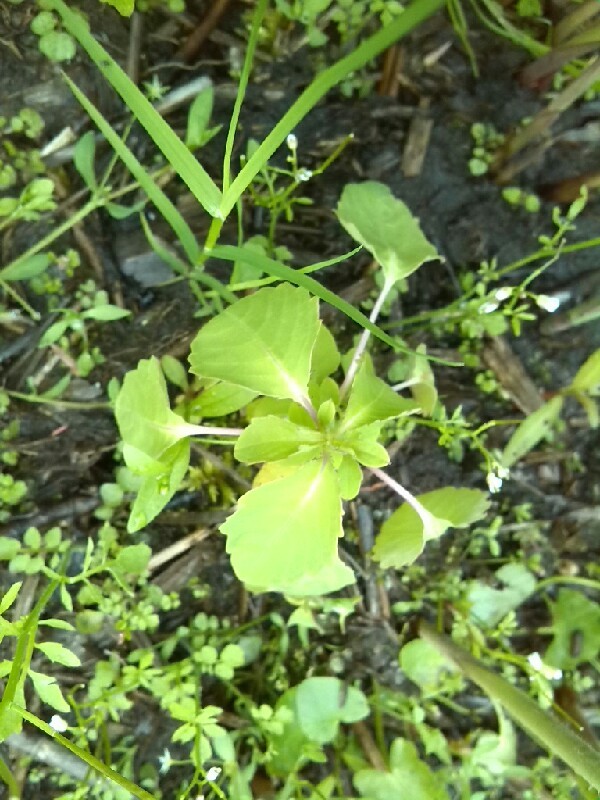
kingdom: Plantae
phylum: Tracheophyta
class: Magnoliopsida
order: Ericales
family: Balsaminaceae
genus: Impatiens
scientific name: Impatiens capensis
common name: Orange balsam
